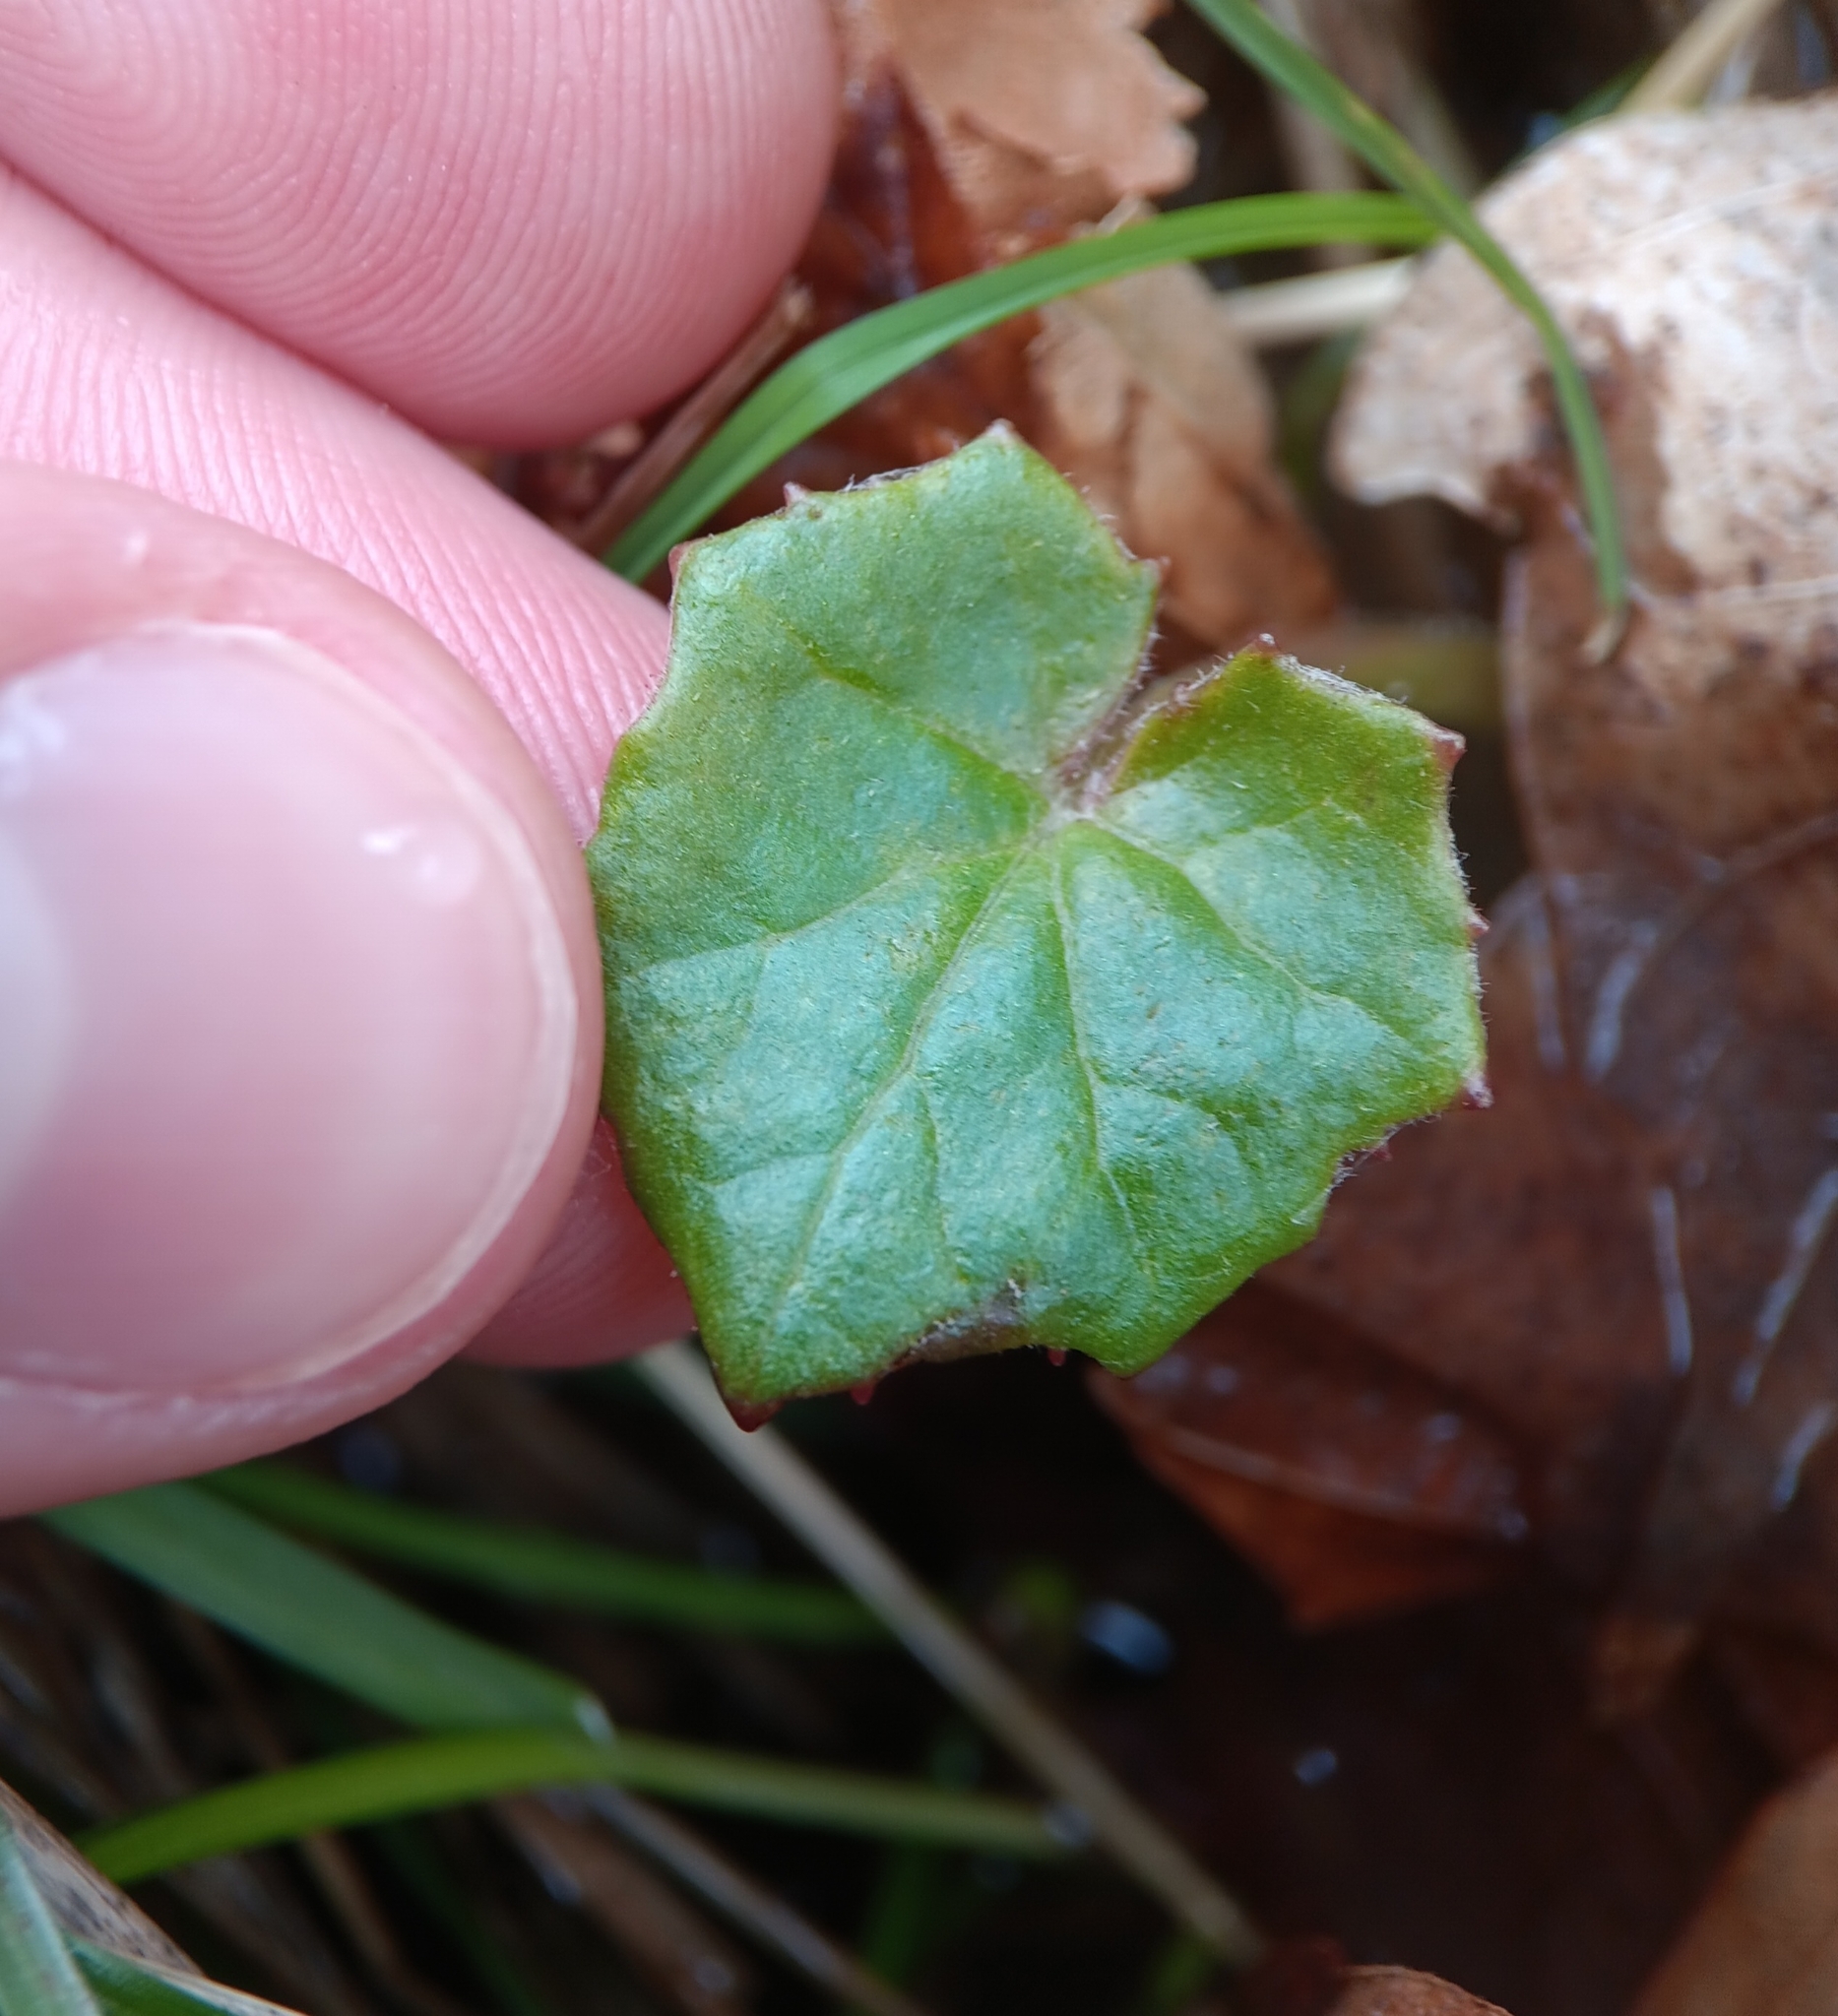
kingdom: Plantae
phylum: Tracheophyta
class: Magnoliopsida
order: Asterales
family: Asteraceae
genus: Tussilago
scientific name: Tussilago farfara
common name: Coltsfoot
